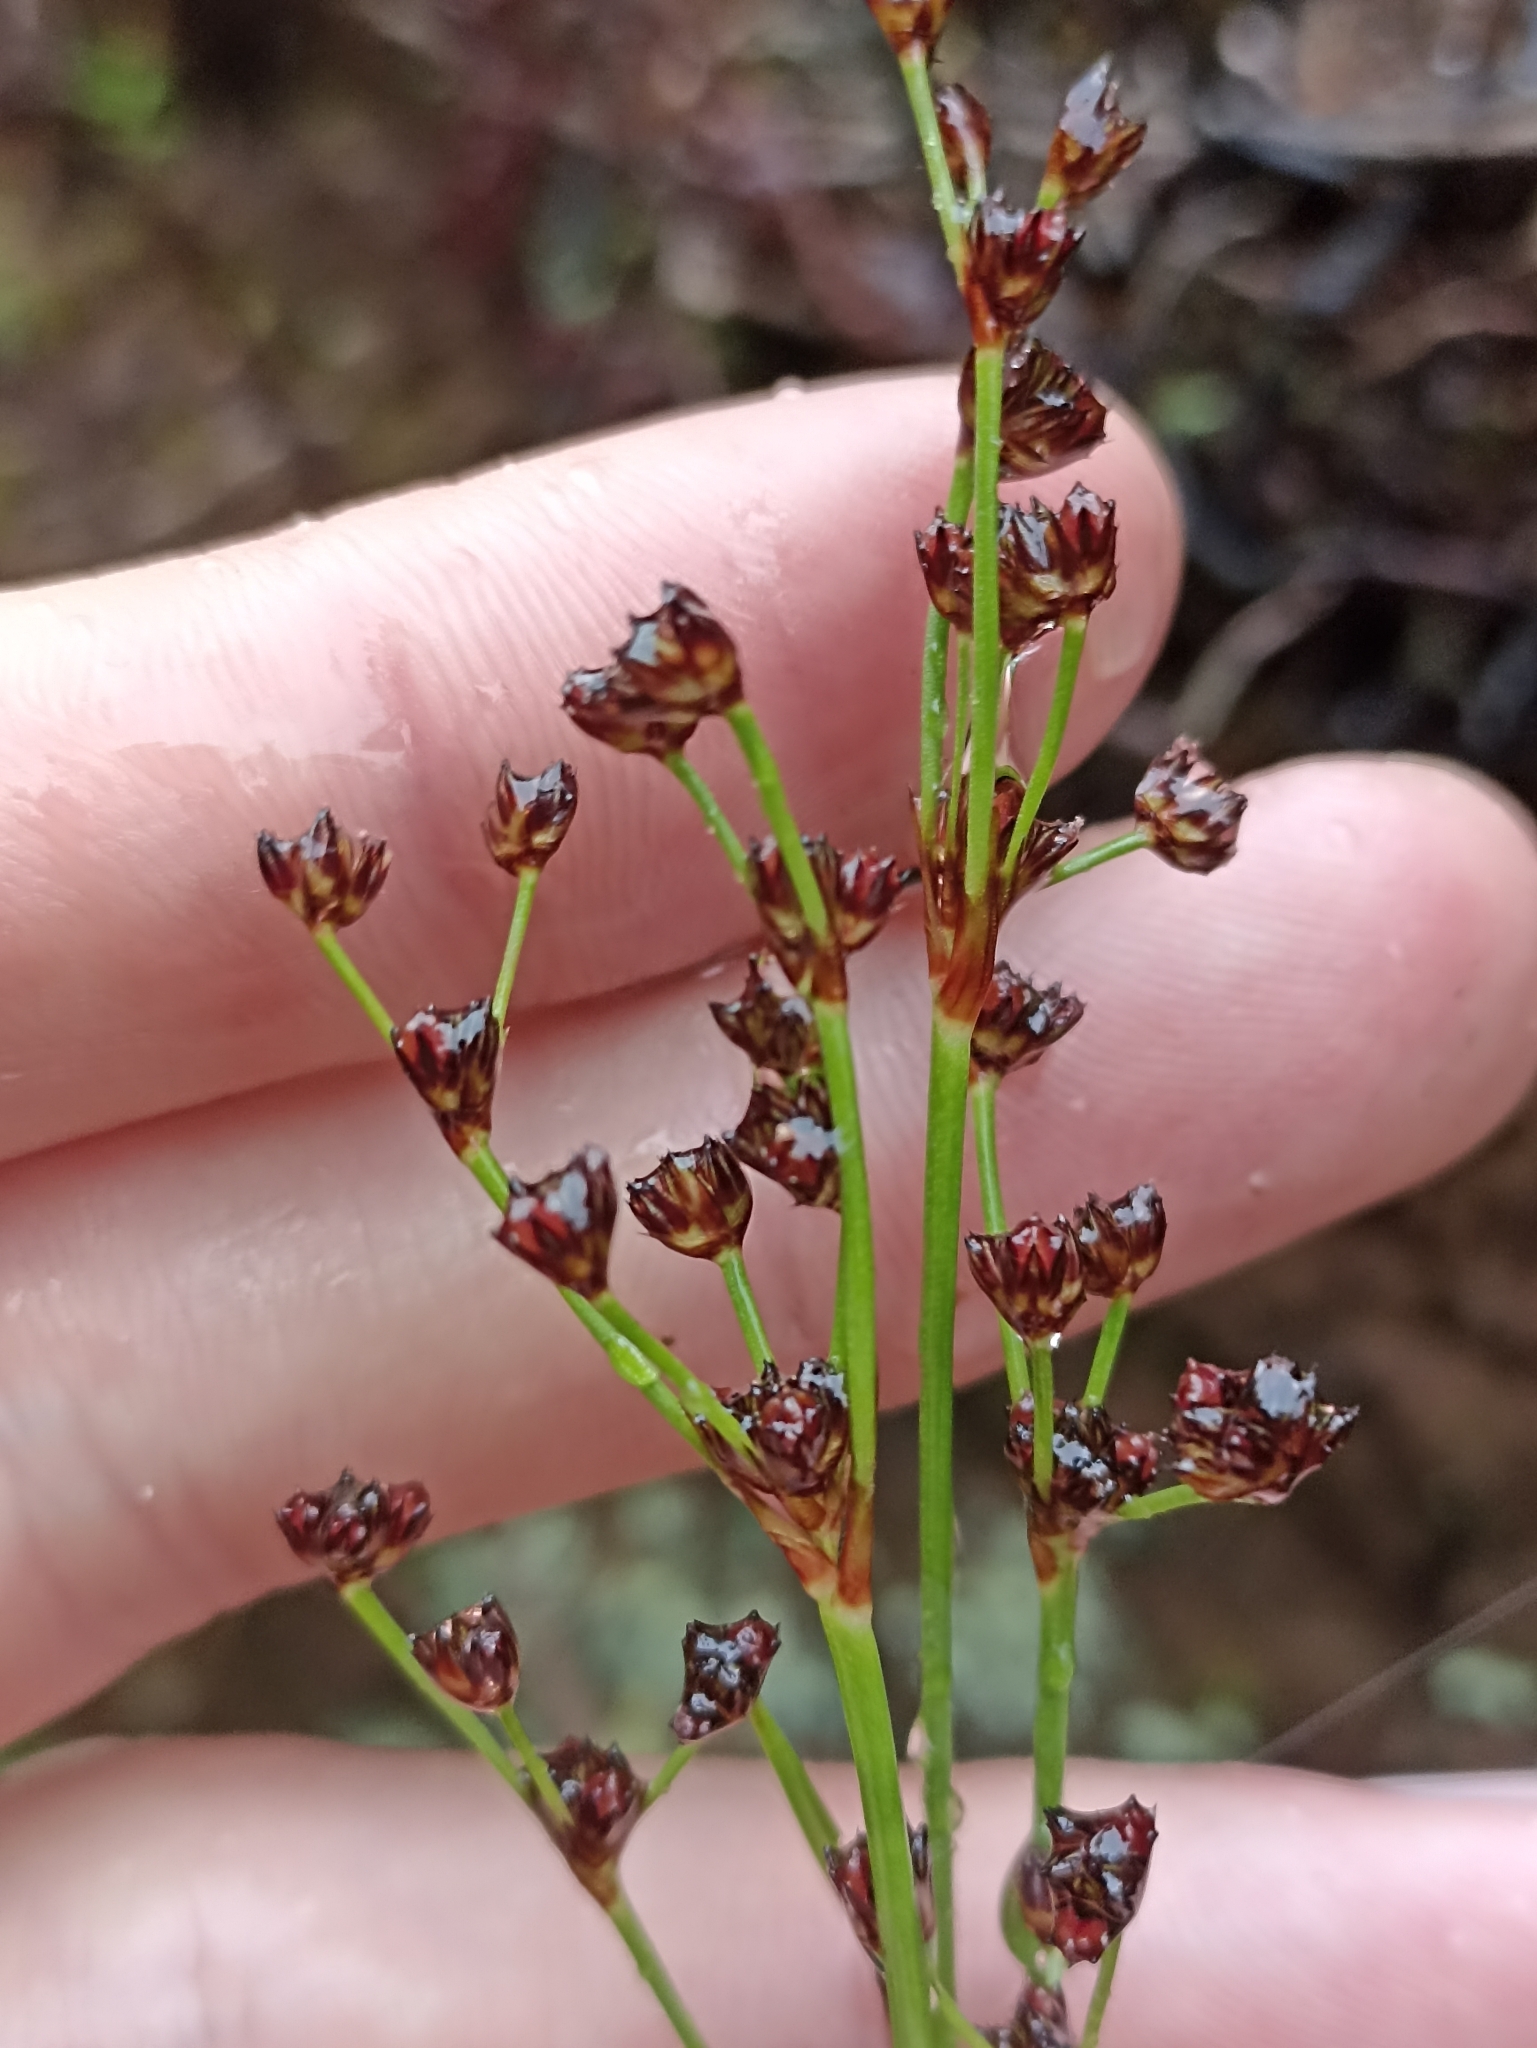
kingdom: Plantae
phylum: Tracheophyta
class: Liliopsida
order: Poales
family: Juncaceae
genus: Juncus
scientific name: Juncus planifolius
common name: Broadleaf rush
